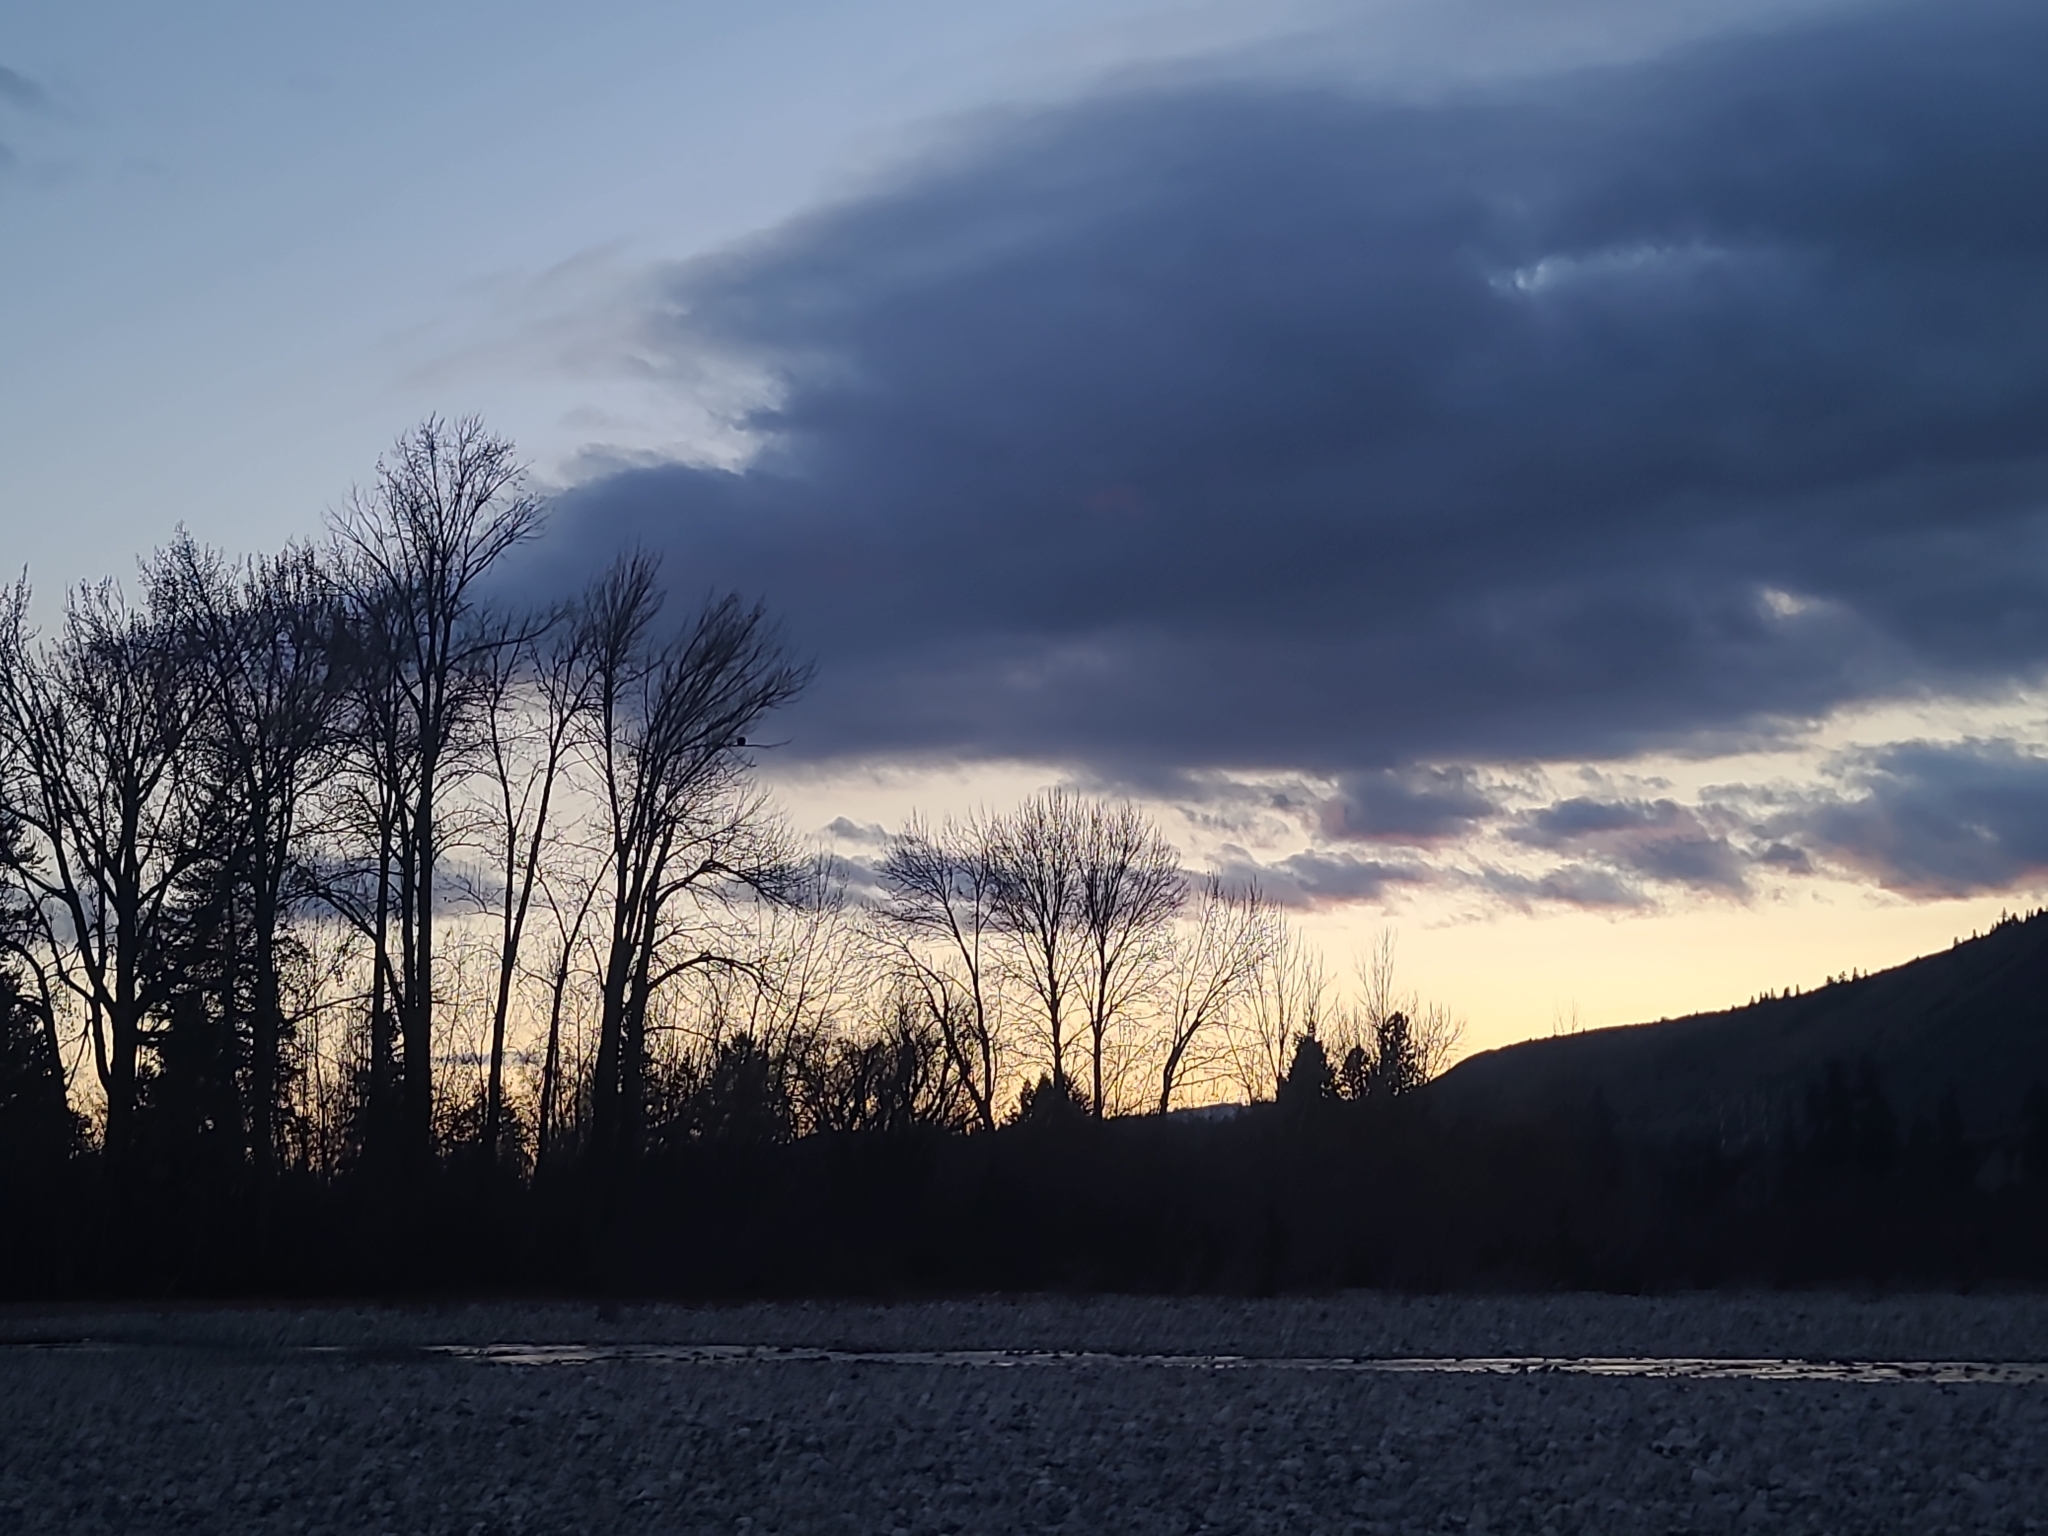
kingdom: Animalia
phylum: Chordata
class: Aves
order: Accipitriformes
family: Accipitridae
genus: Haliaeetus
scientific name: Haliaeetus leucocephalus
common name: Bald eagle
